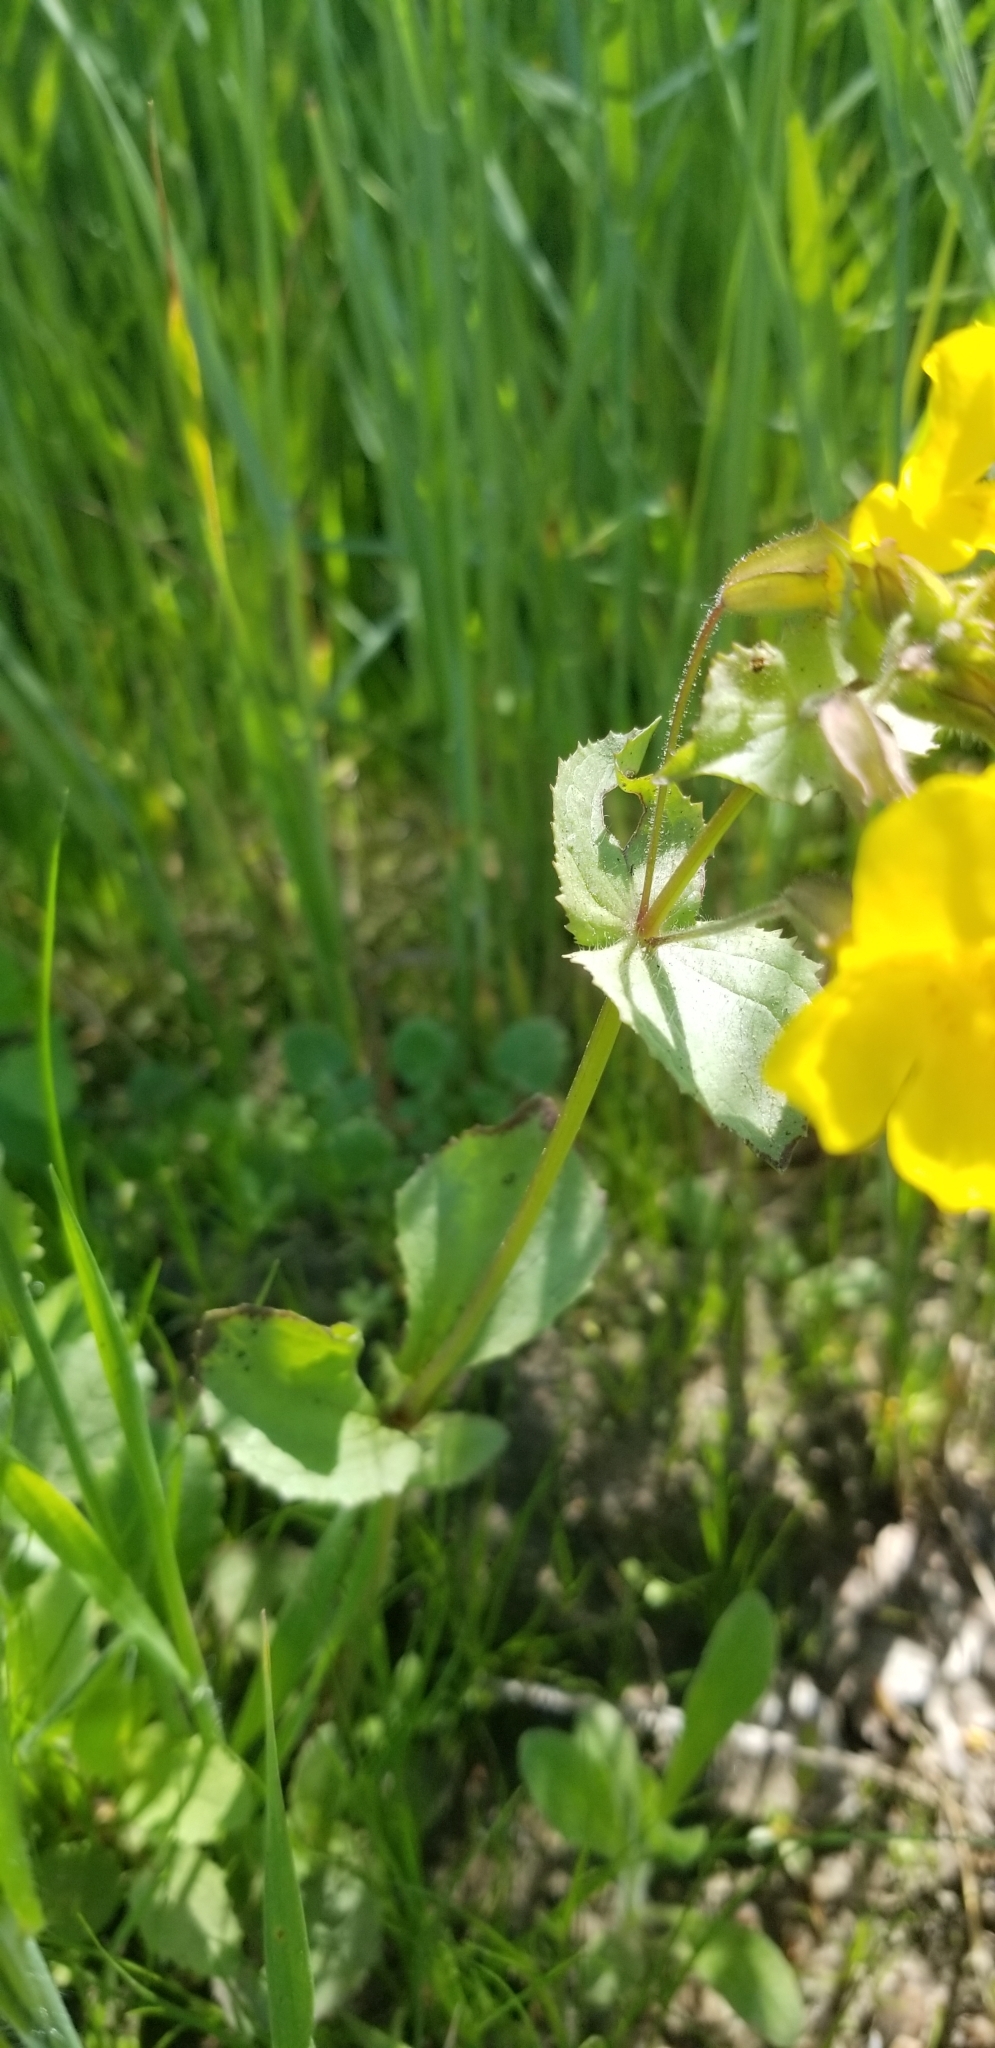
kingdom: Plantae
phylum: Tracheophyta
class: Magnoliopsida
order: Lamiales
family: Phrymaceae
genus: Erythranthe
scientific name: Erythranthe guttata
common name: Monkeyflower
